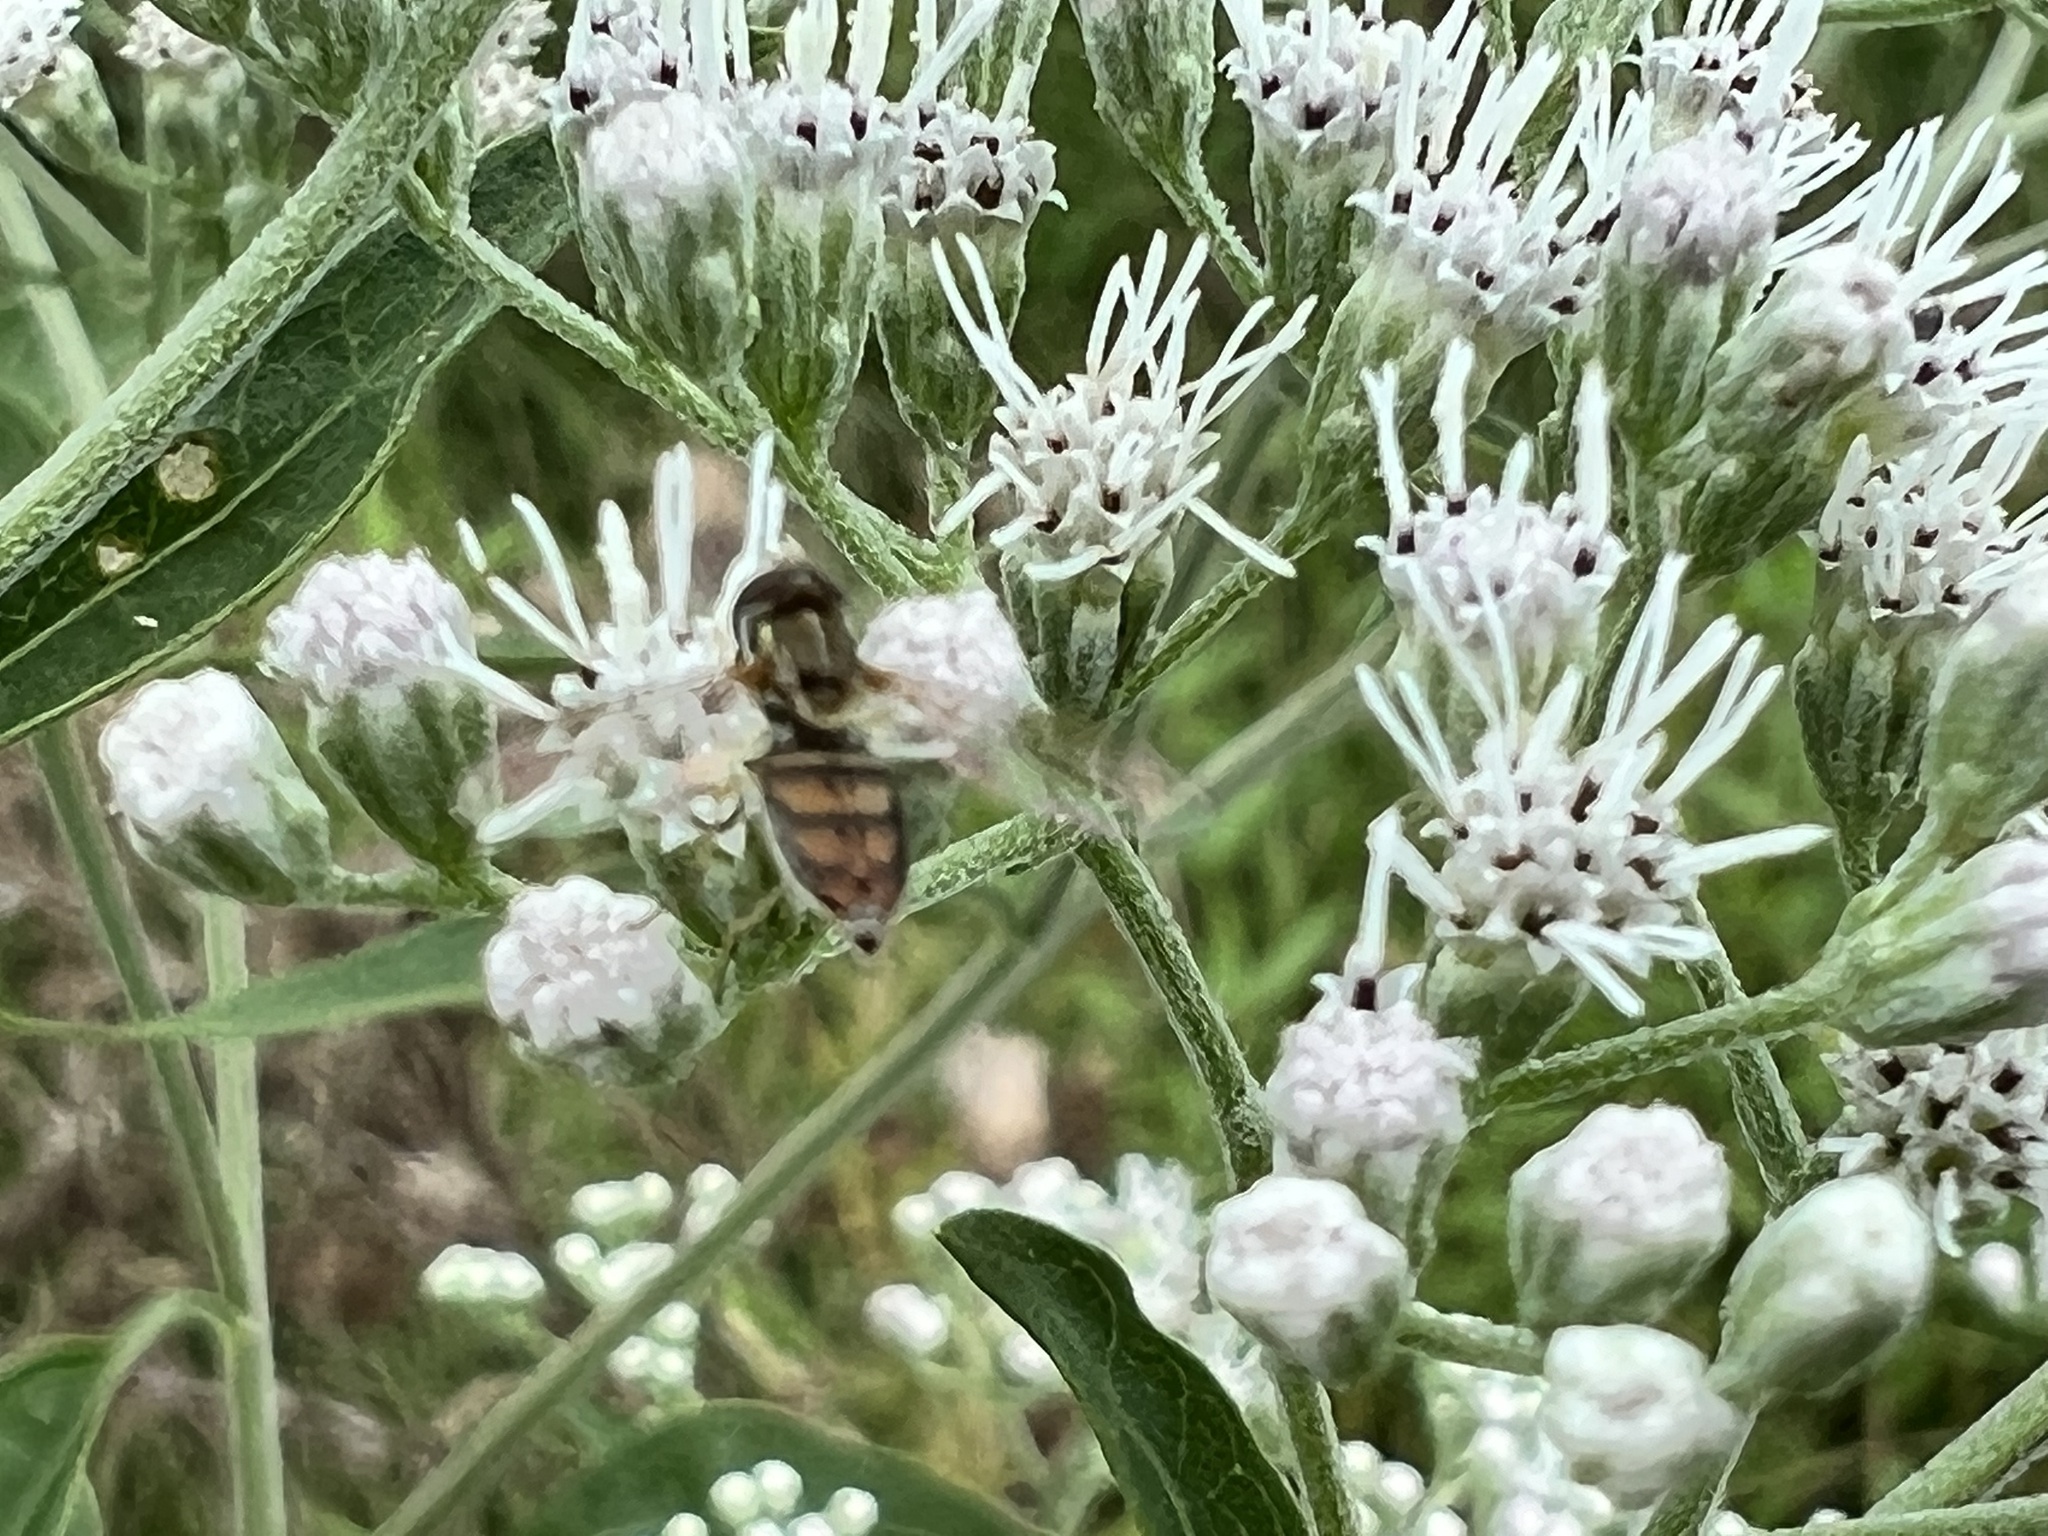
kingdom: Animalia
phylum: Arthropoda
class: Insecta
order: Diptera
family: Syrphidae
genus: Toxomerus
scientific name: Toxomerus marginatus
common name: Syrphid fly
